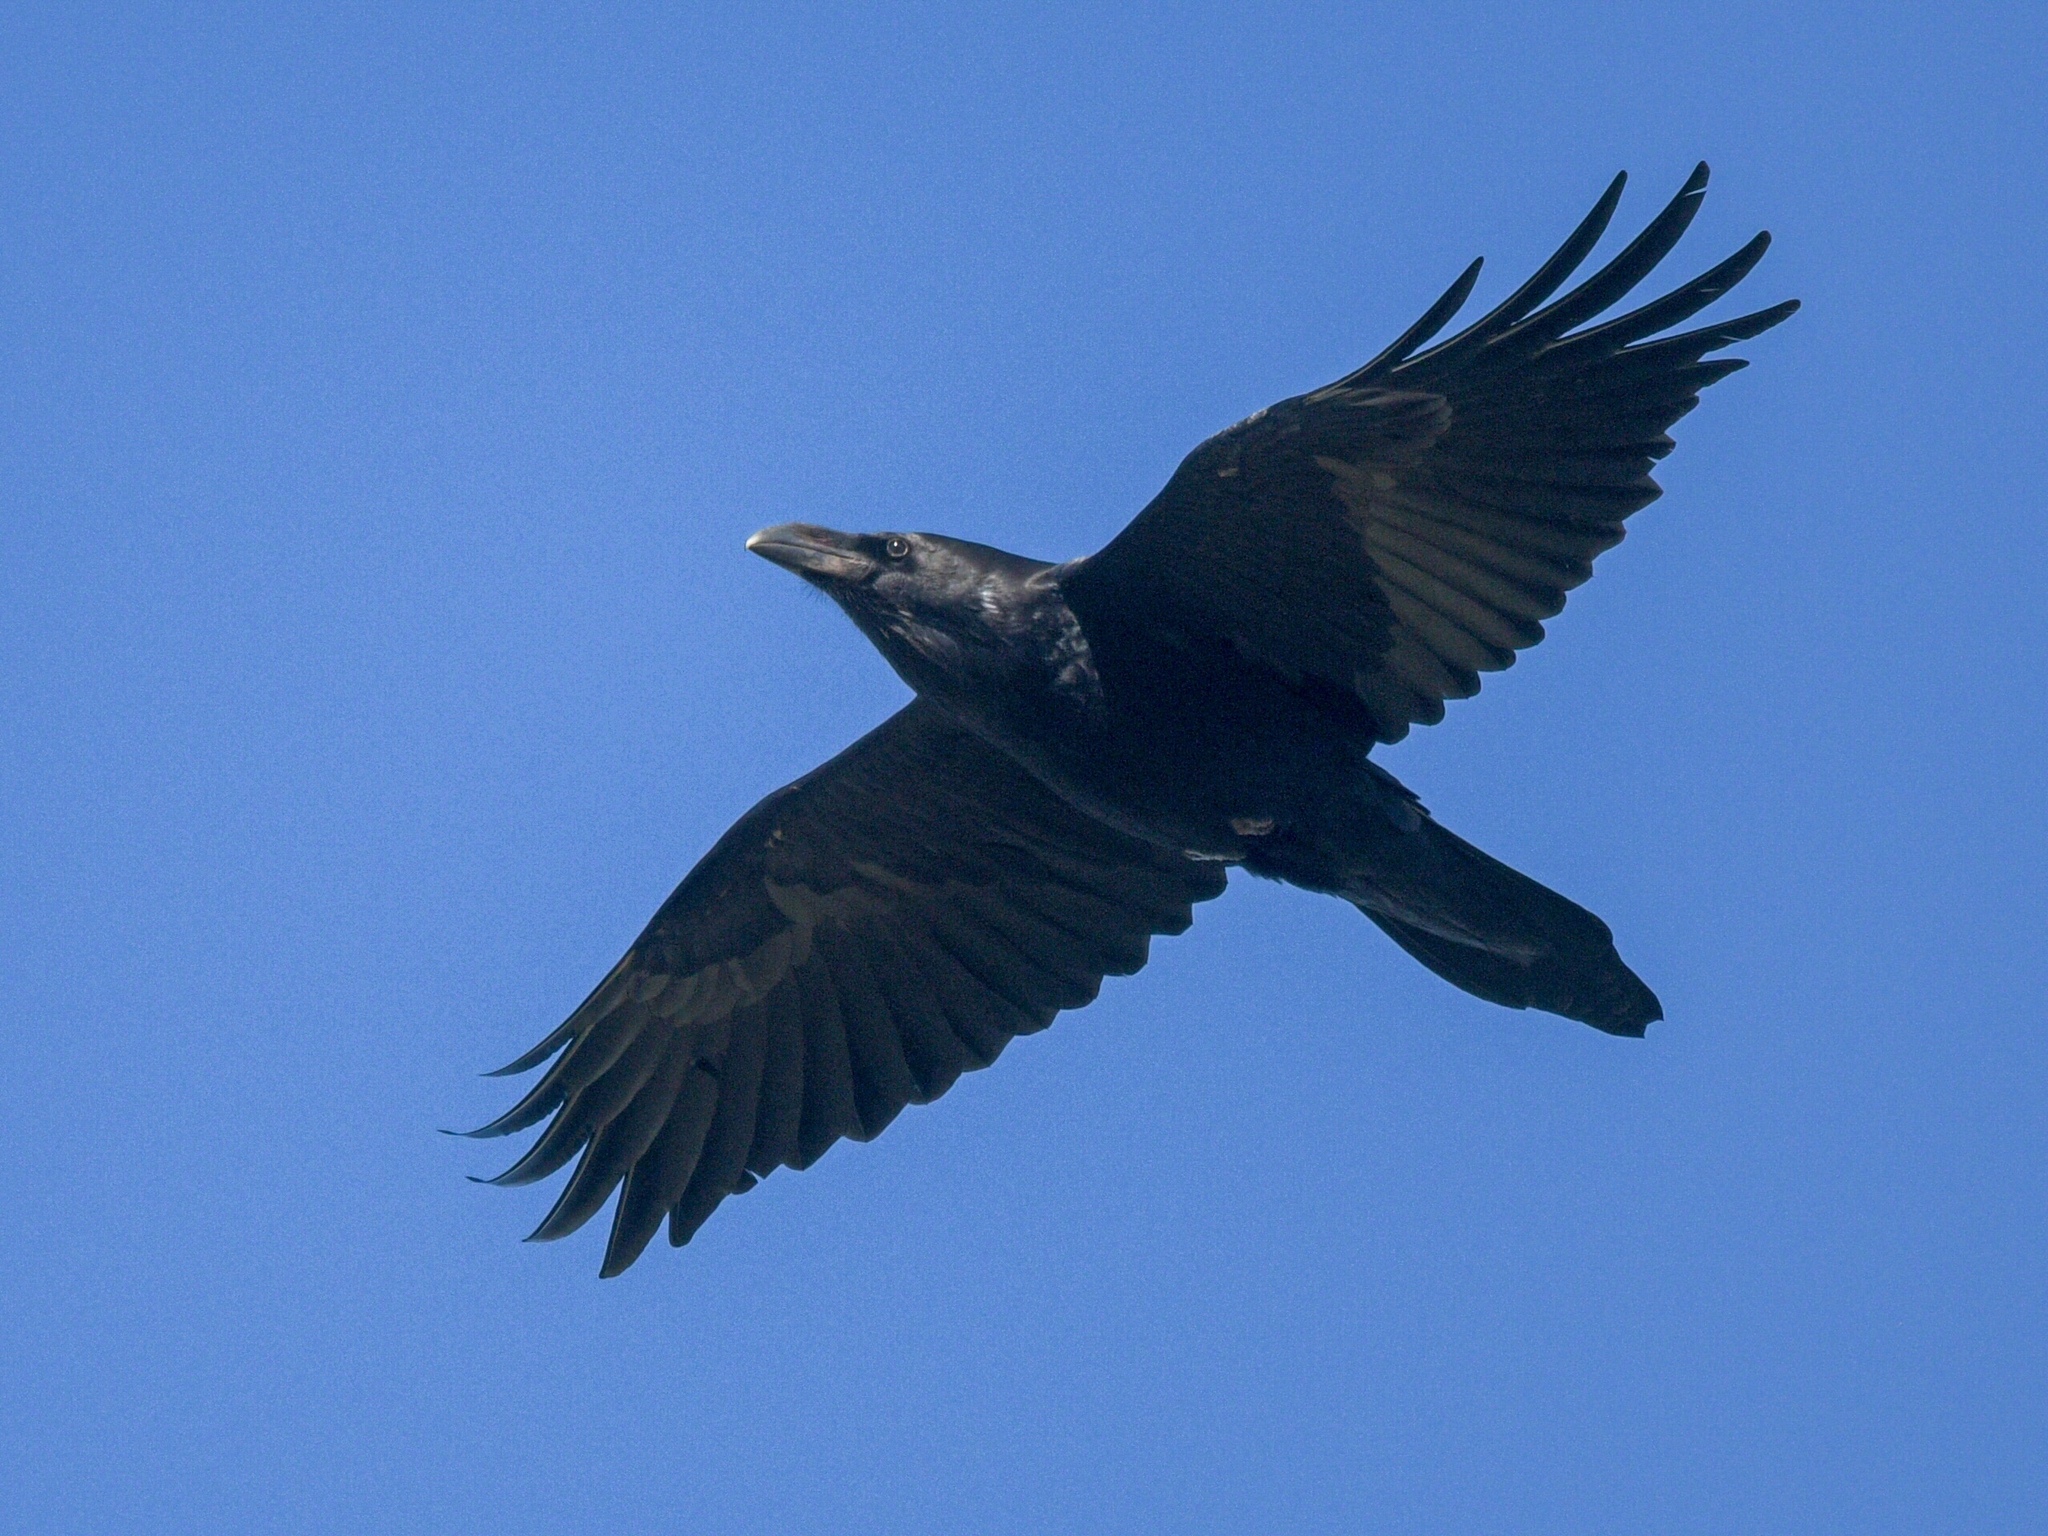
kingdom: Animalia
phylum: Chordata
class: Aves
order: Passeriformes
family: Corvidae
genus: Corvus
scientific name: Corvus corax
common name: Common raven
